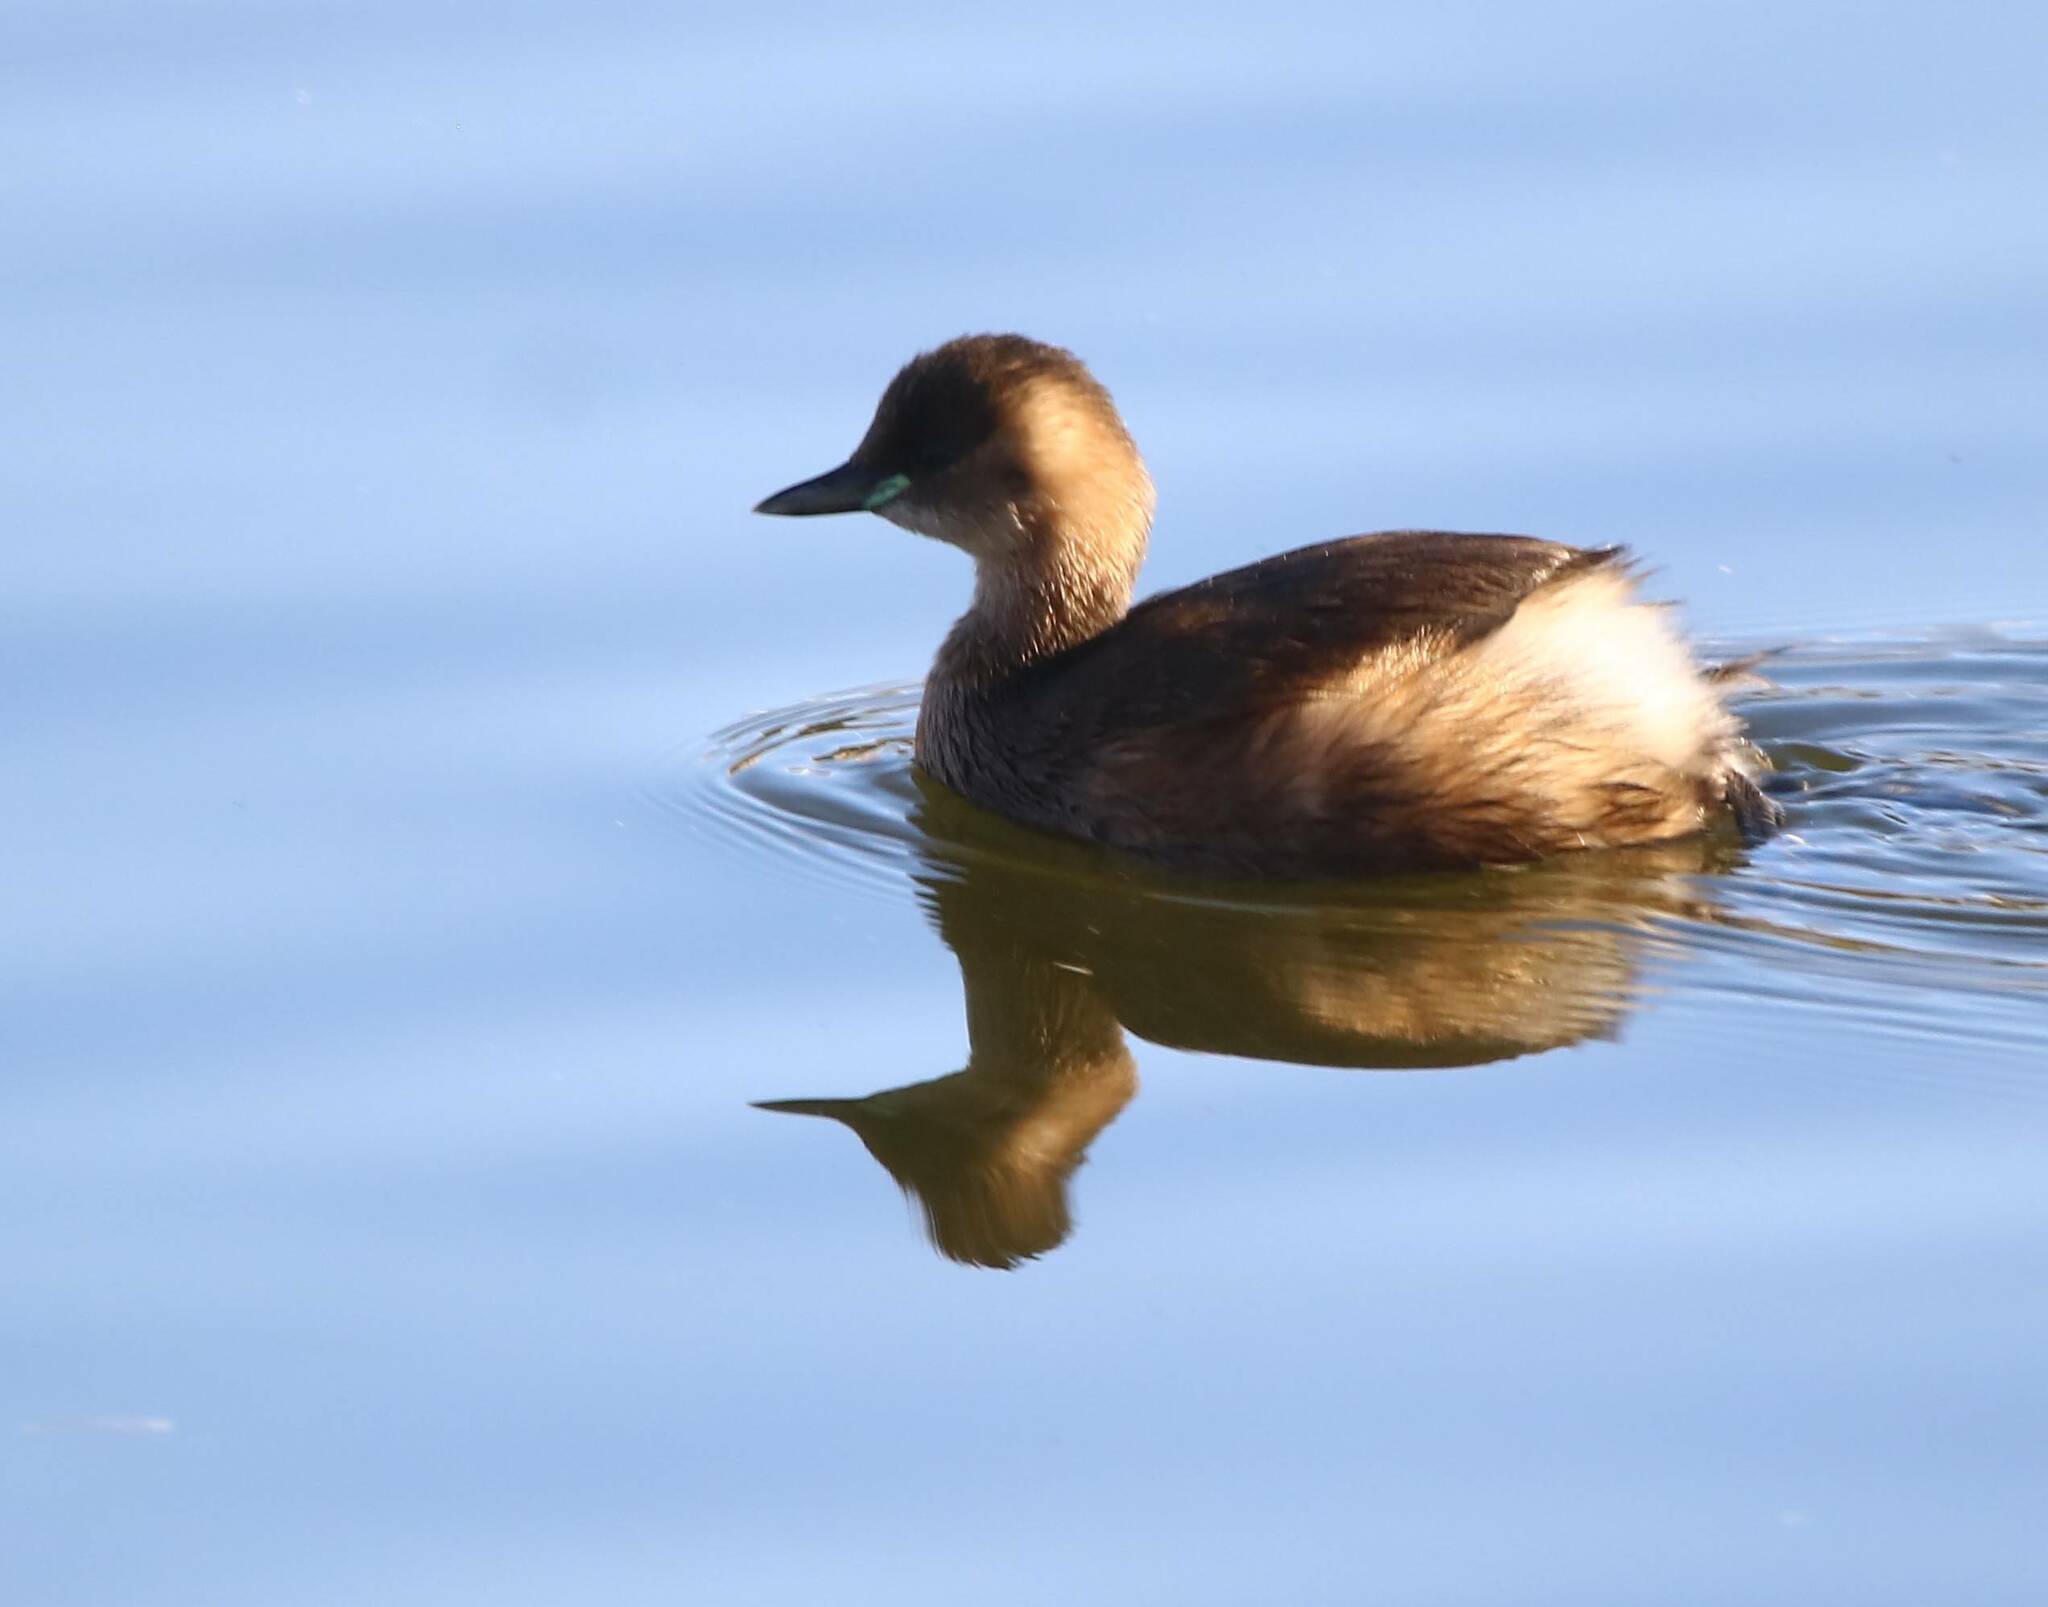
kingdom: Animalia
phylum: Chordata
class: Aves
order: Podicipediformes
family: Podicipedidae
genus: Tachybaptus
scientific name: Tachybaptus ruficollis
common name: Little grebe
